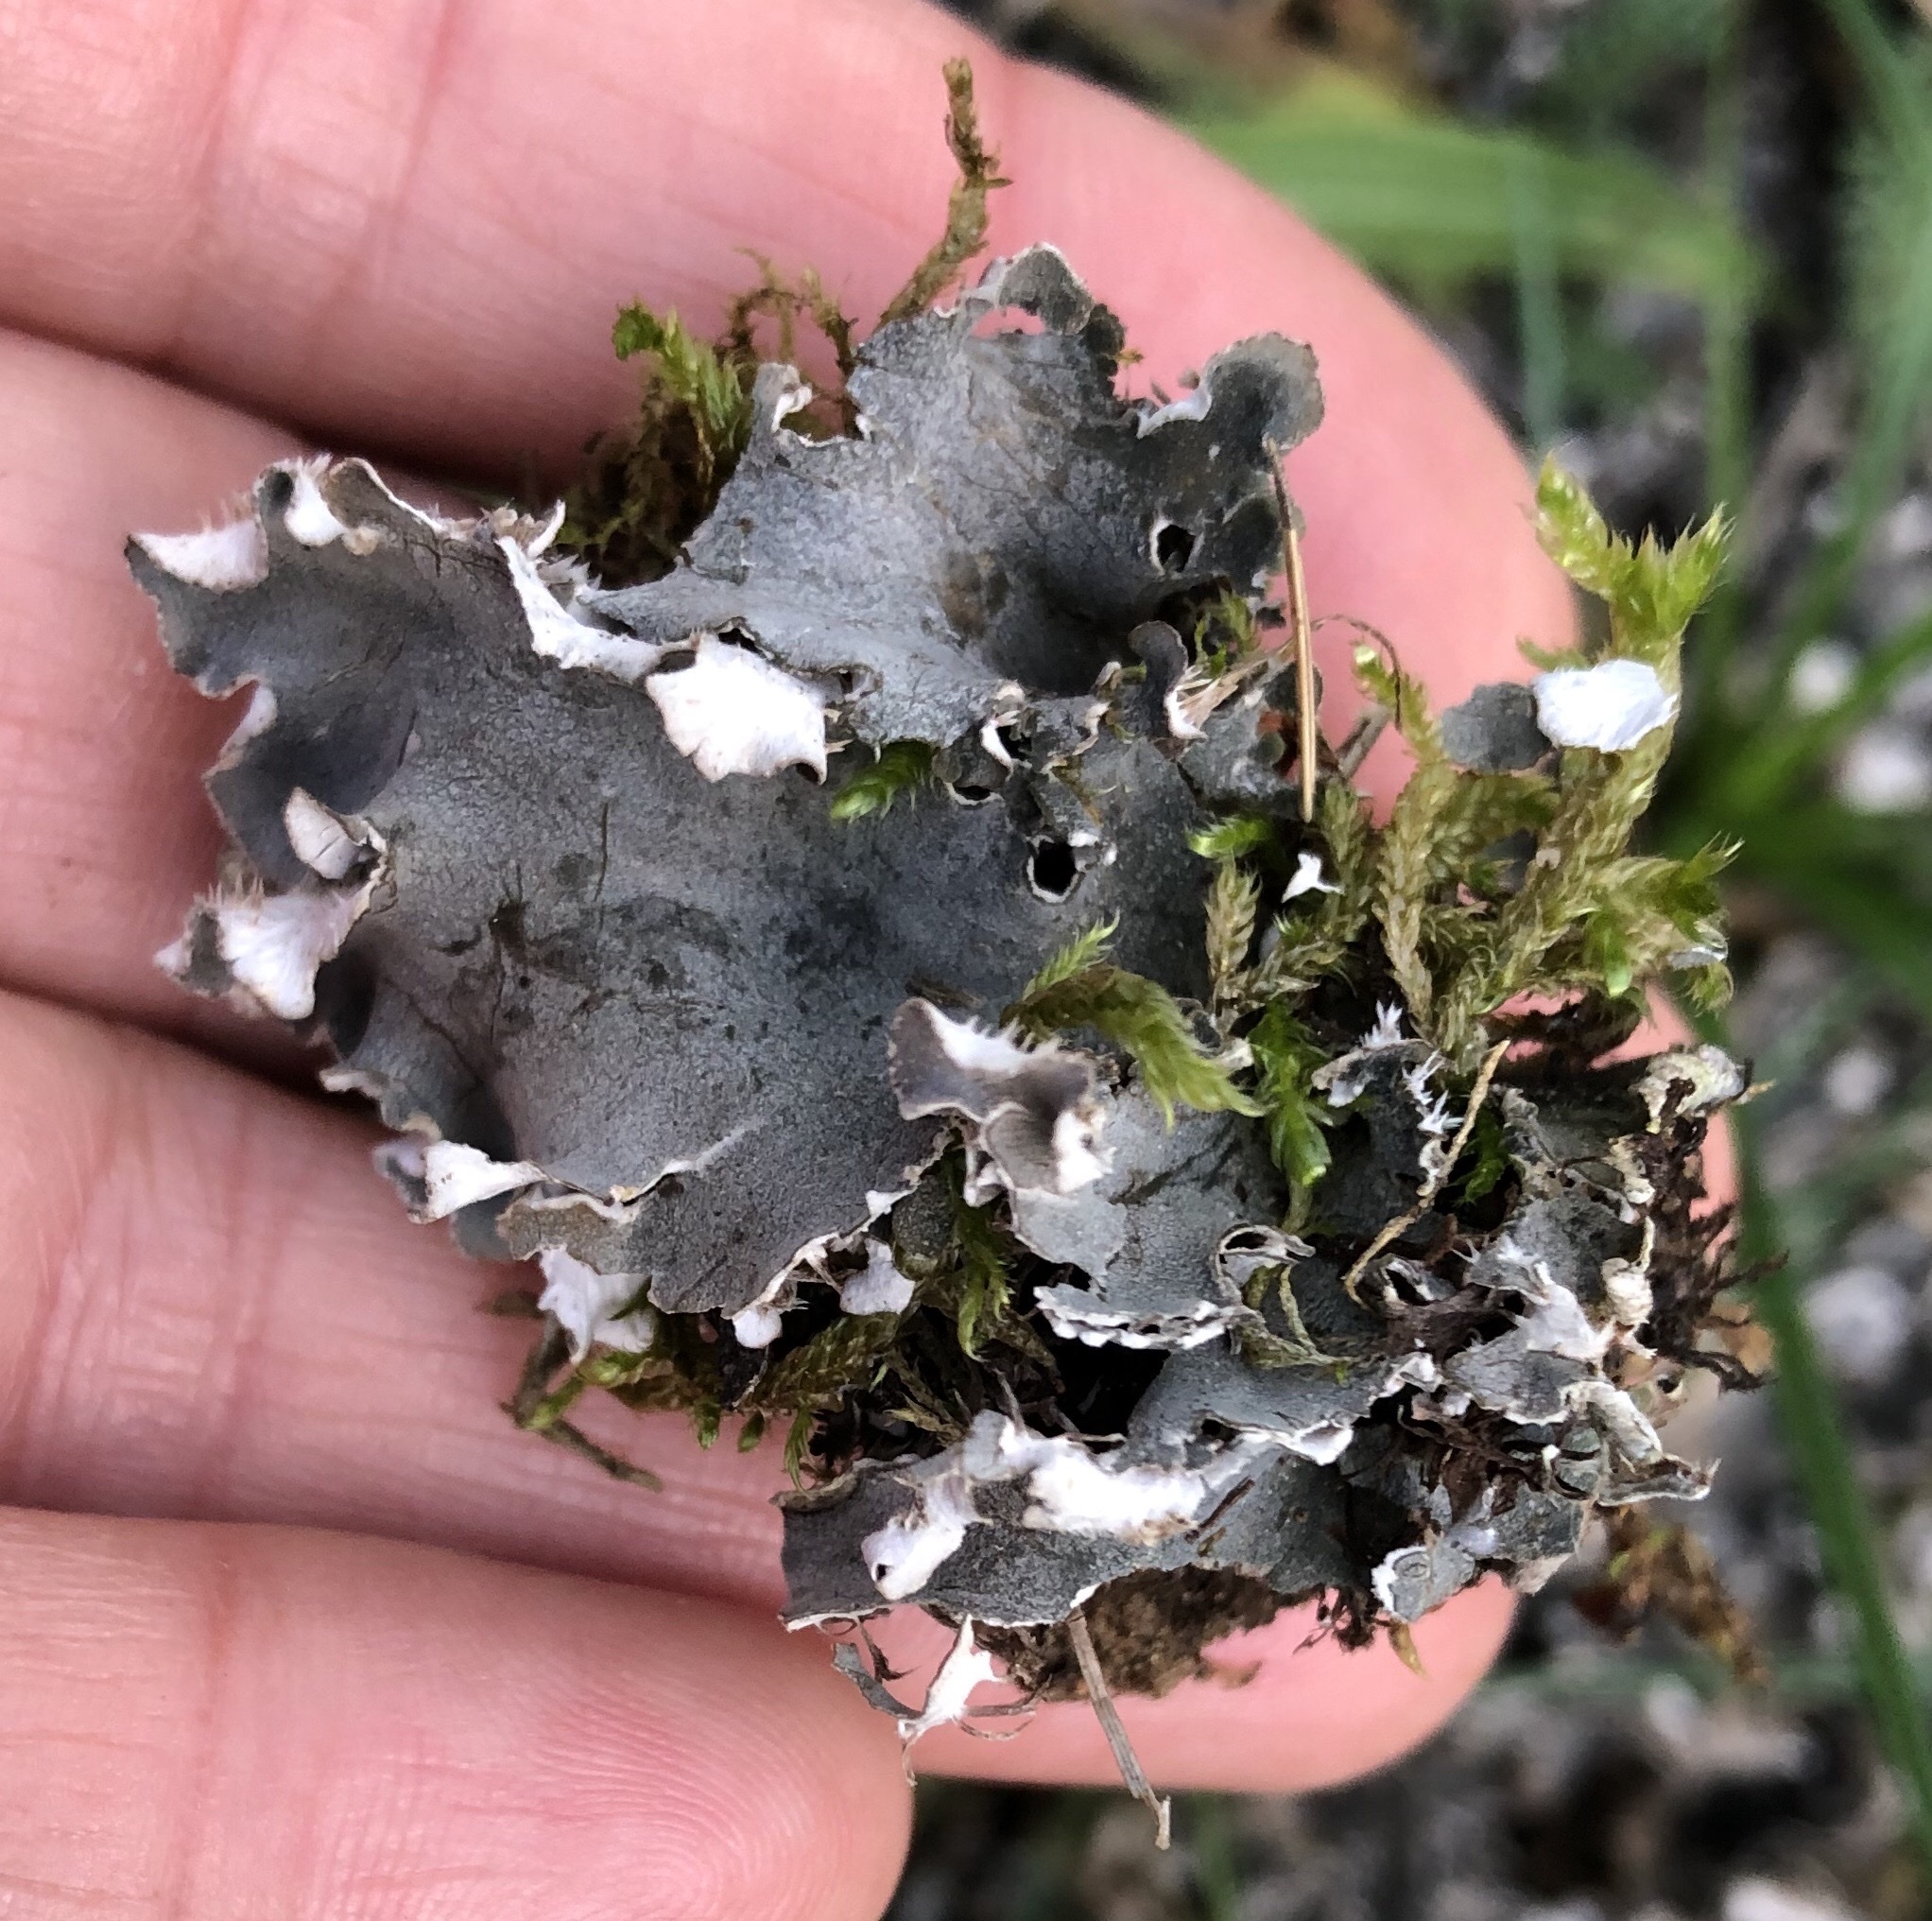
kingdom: Fungi
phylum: Ascomycota
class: Lecanoromycetes
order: Peltigerales
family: Peltigeraceae
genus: Peltigera
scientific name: Peltigera canina
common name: Dog pelt lichen
